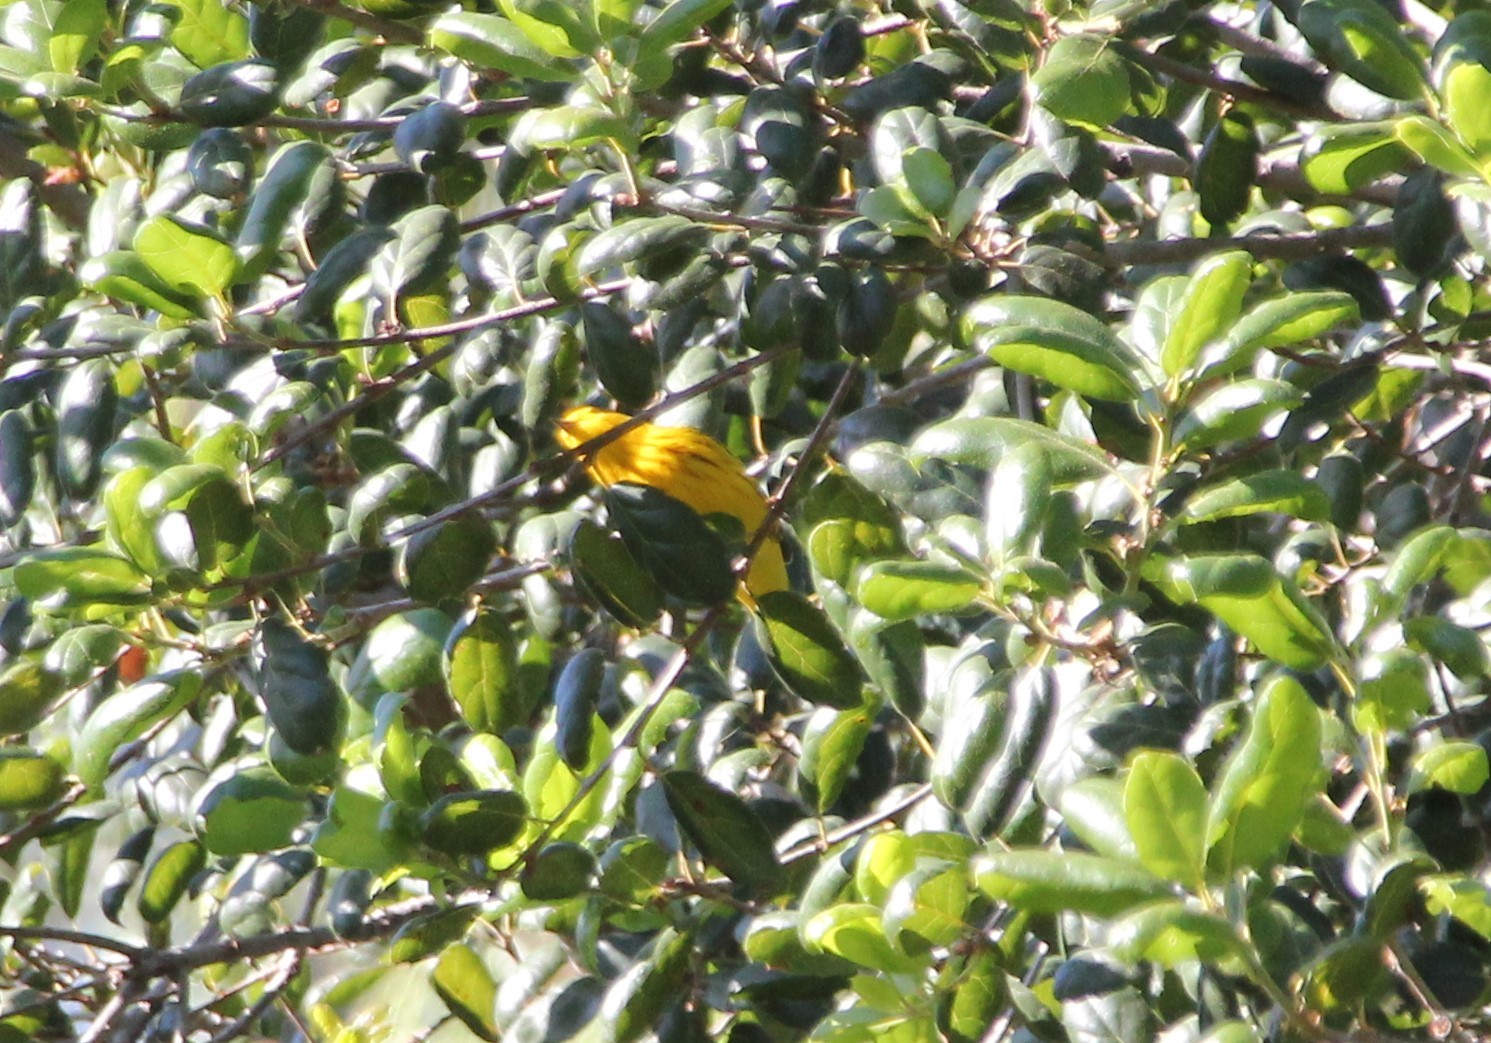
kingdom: Animalia
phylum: Chordata
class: Aves
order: Passeriformes
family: Parulidae
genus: Setophaga
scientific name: Setophaga petechia
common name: Yellow warbler
